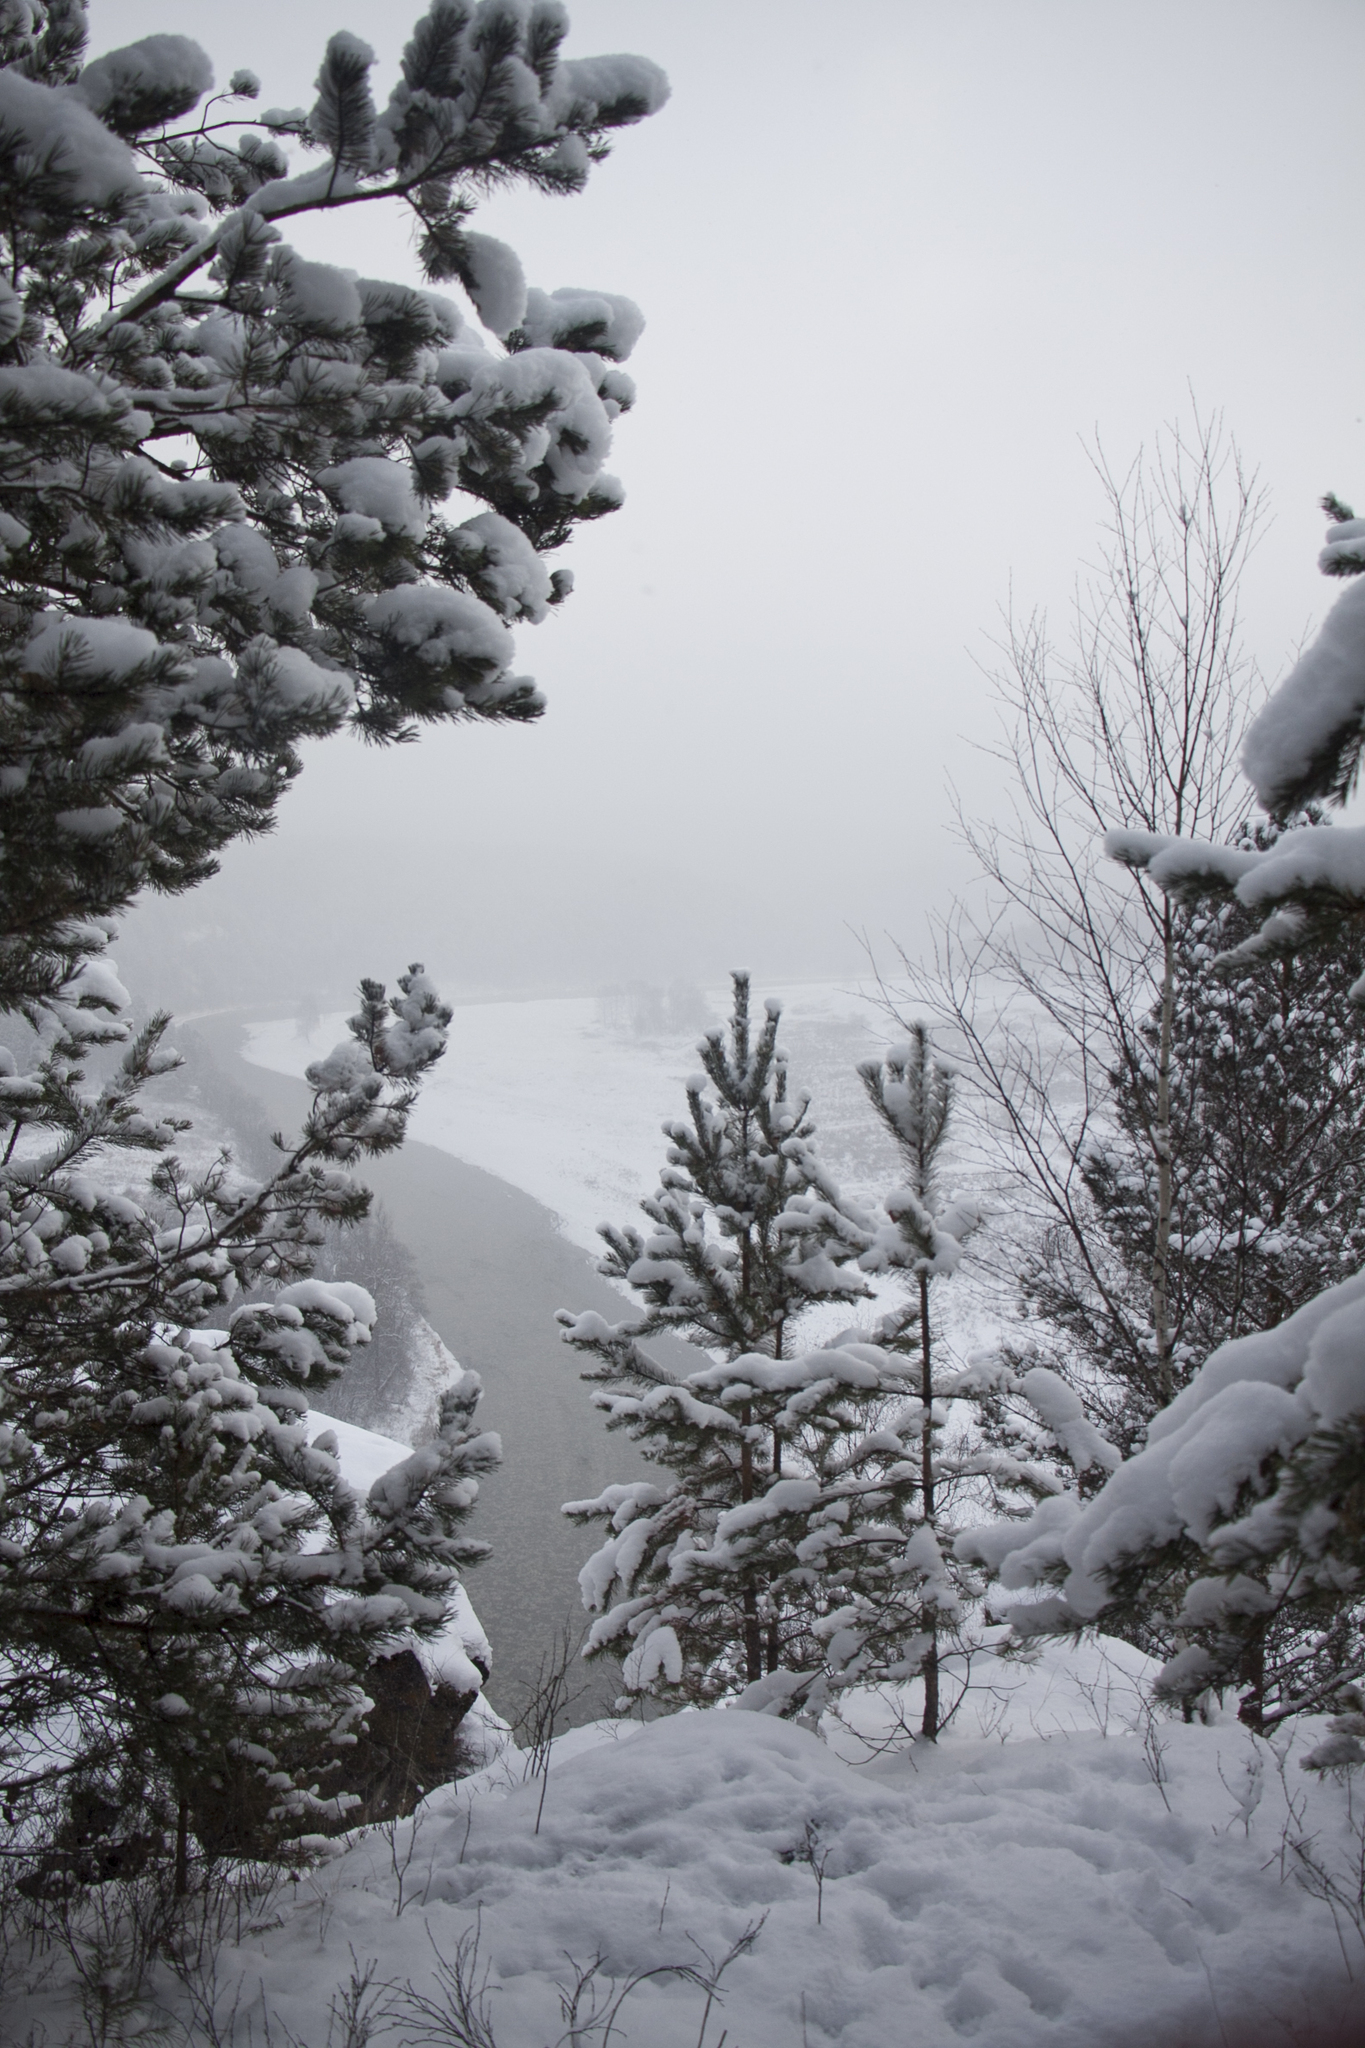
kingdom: Plantae
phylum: Tracheophyta
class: Pinopsida
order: Pinales
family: Pinaceae
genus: Pinus
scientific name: Pinus sylvestris
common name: Scots pine
